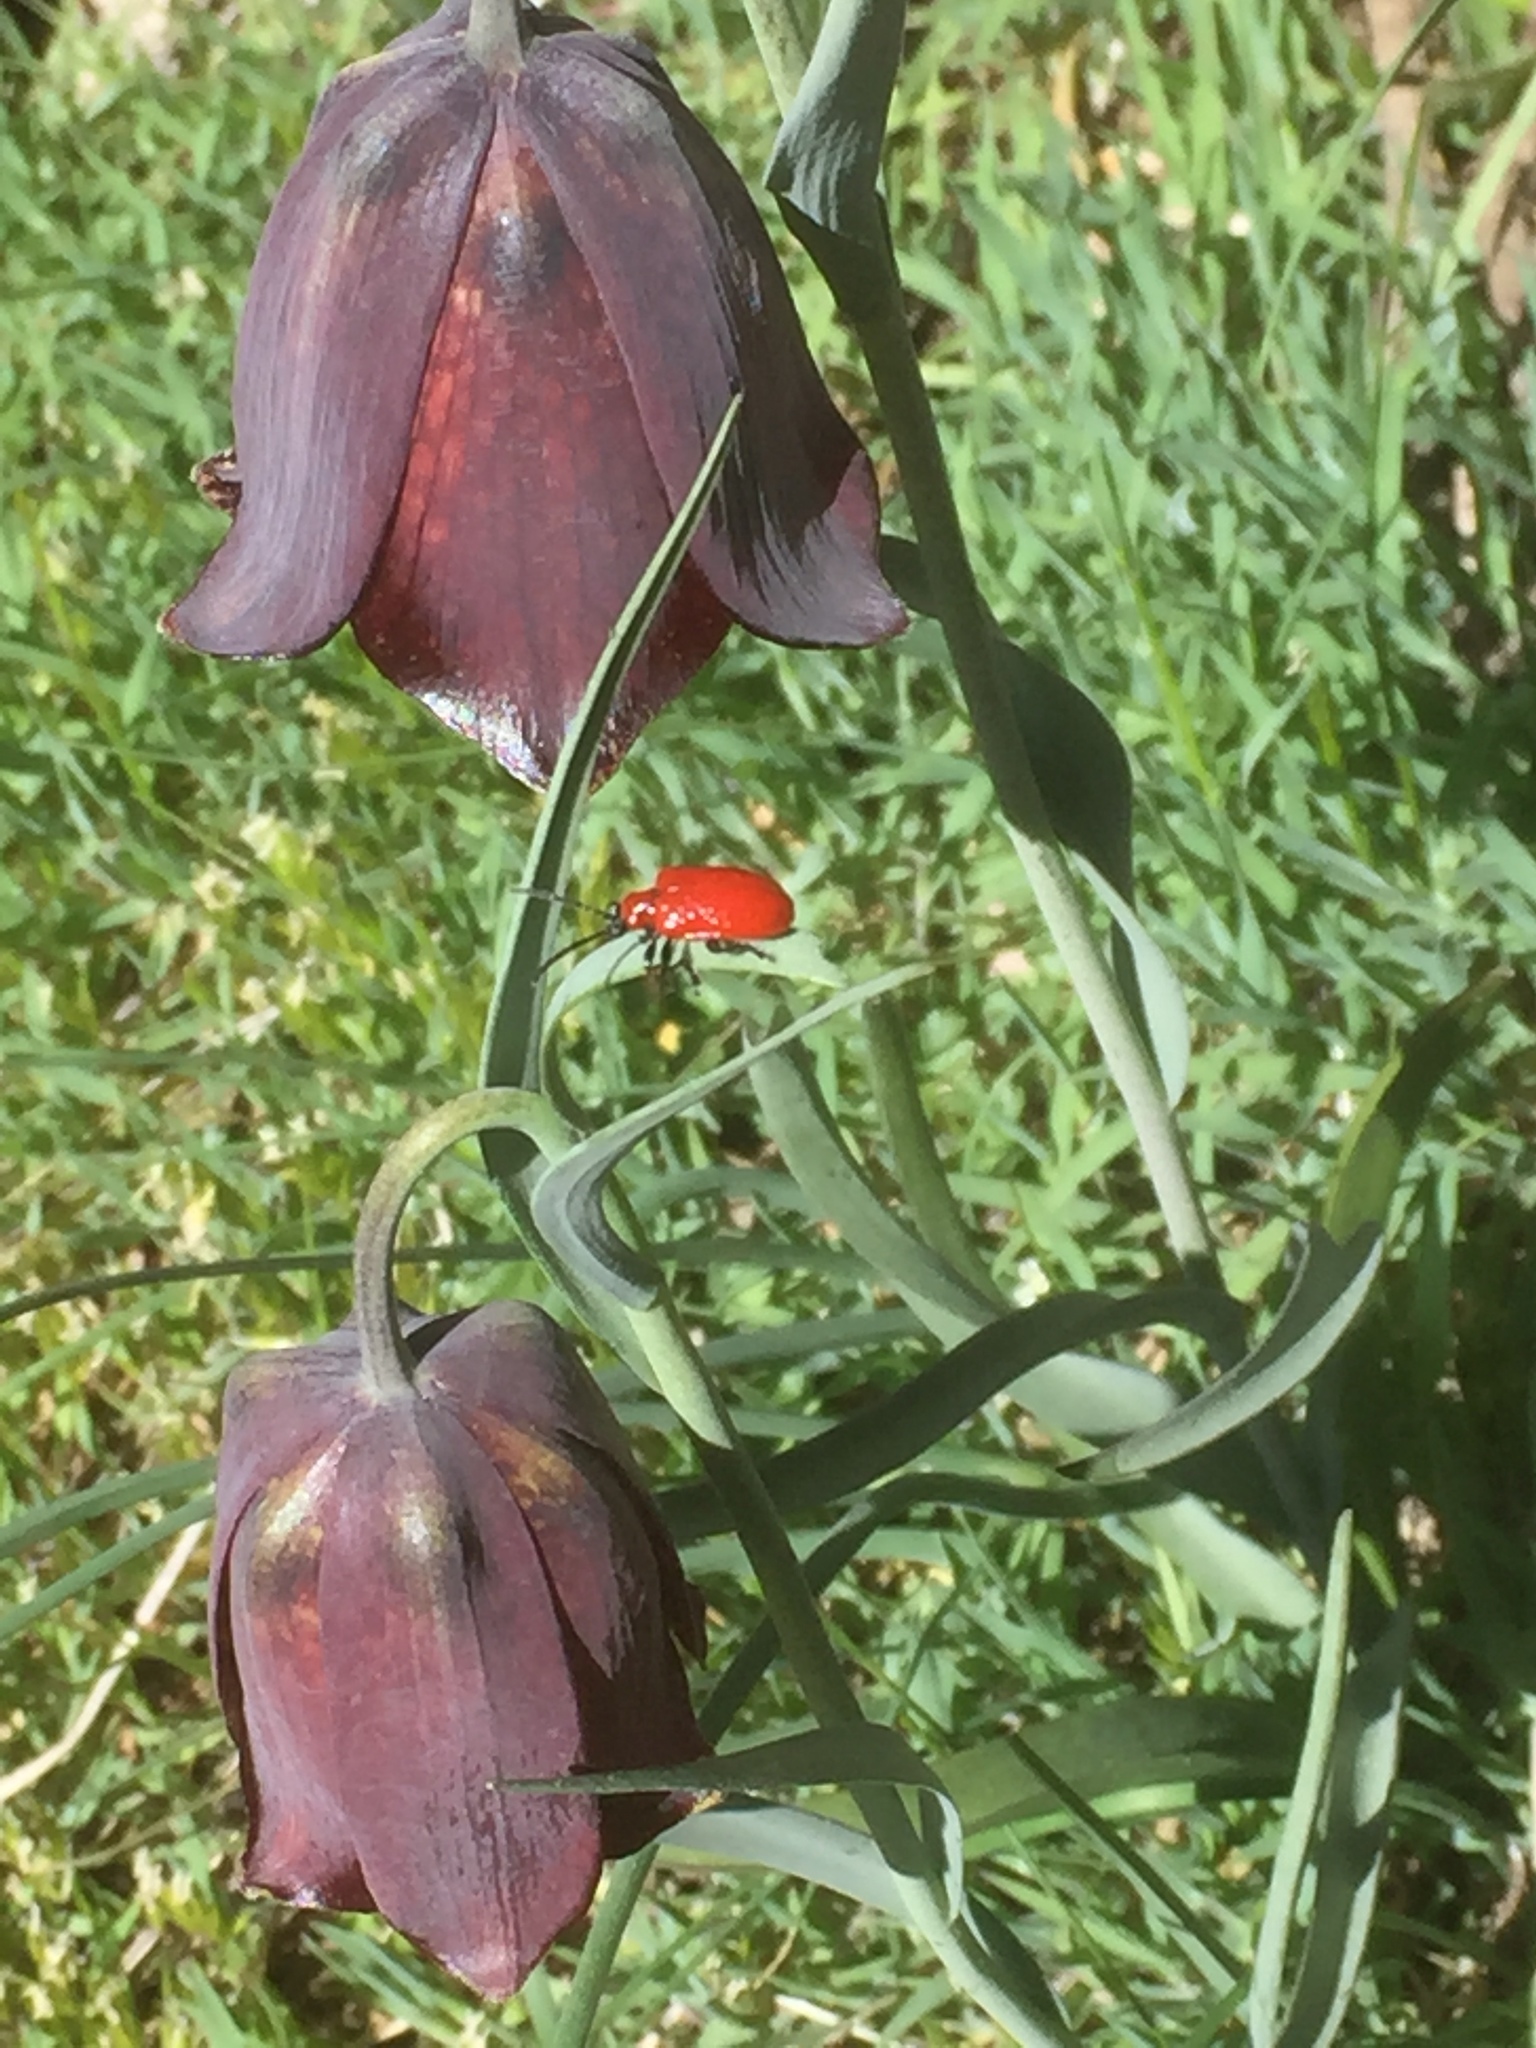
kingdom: Plantae
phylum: Tracheophyta
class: Liliopsida
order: Liliales
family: Liliaceae
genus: Fritillaria
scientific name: Fritillaria pyrenaica
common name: Pyrenean snake's-head
